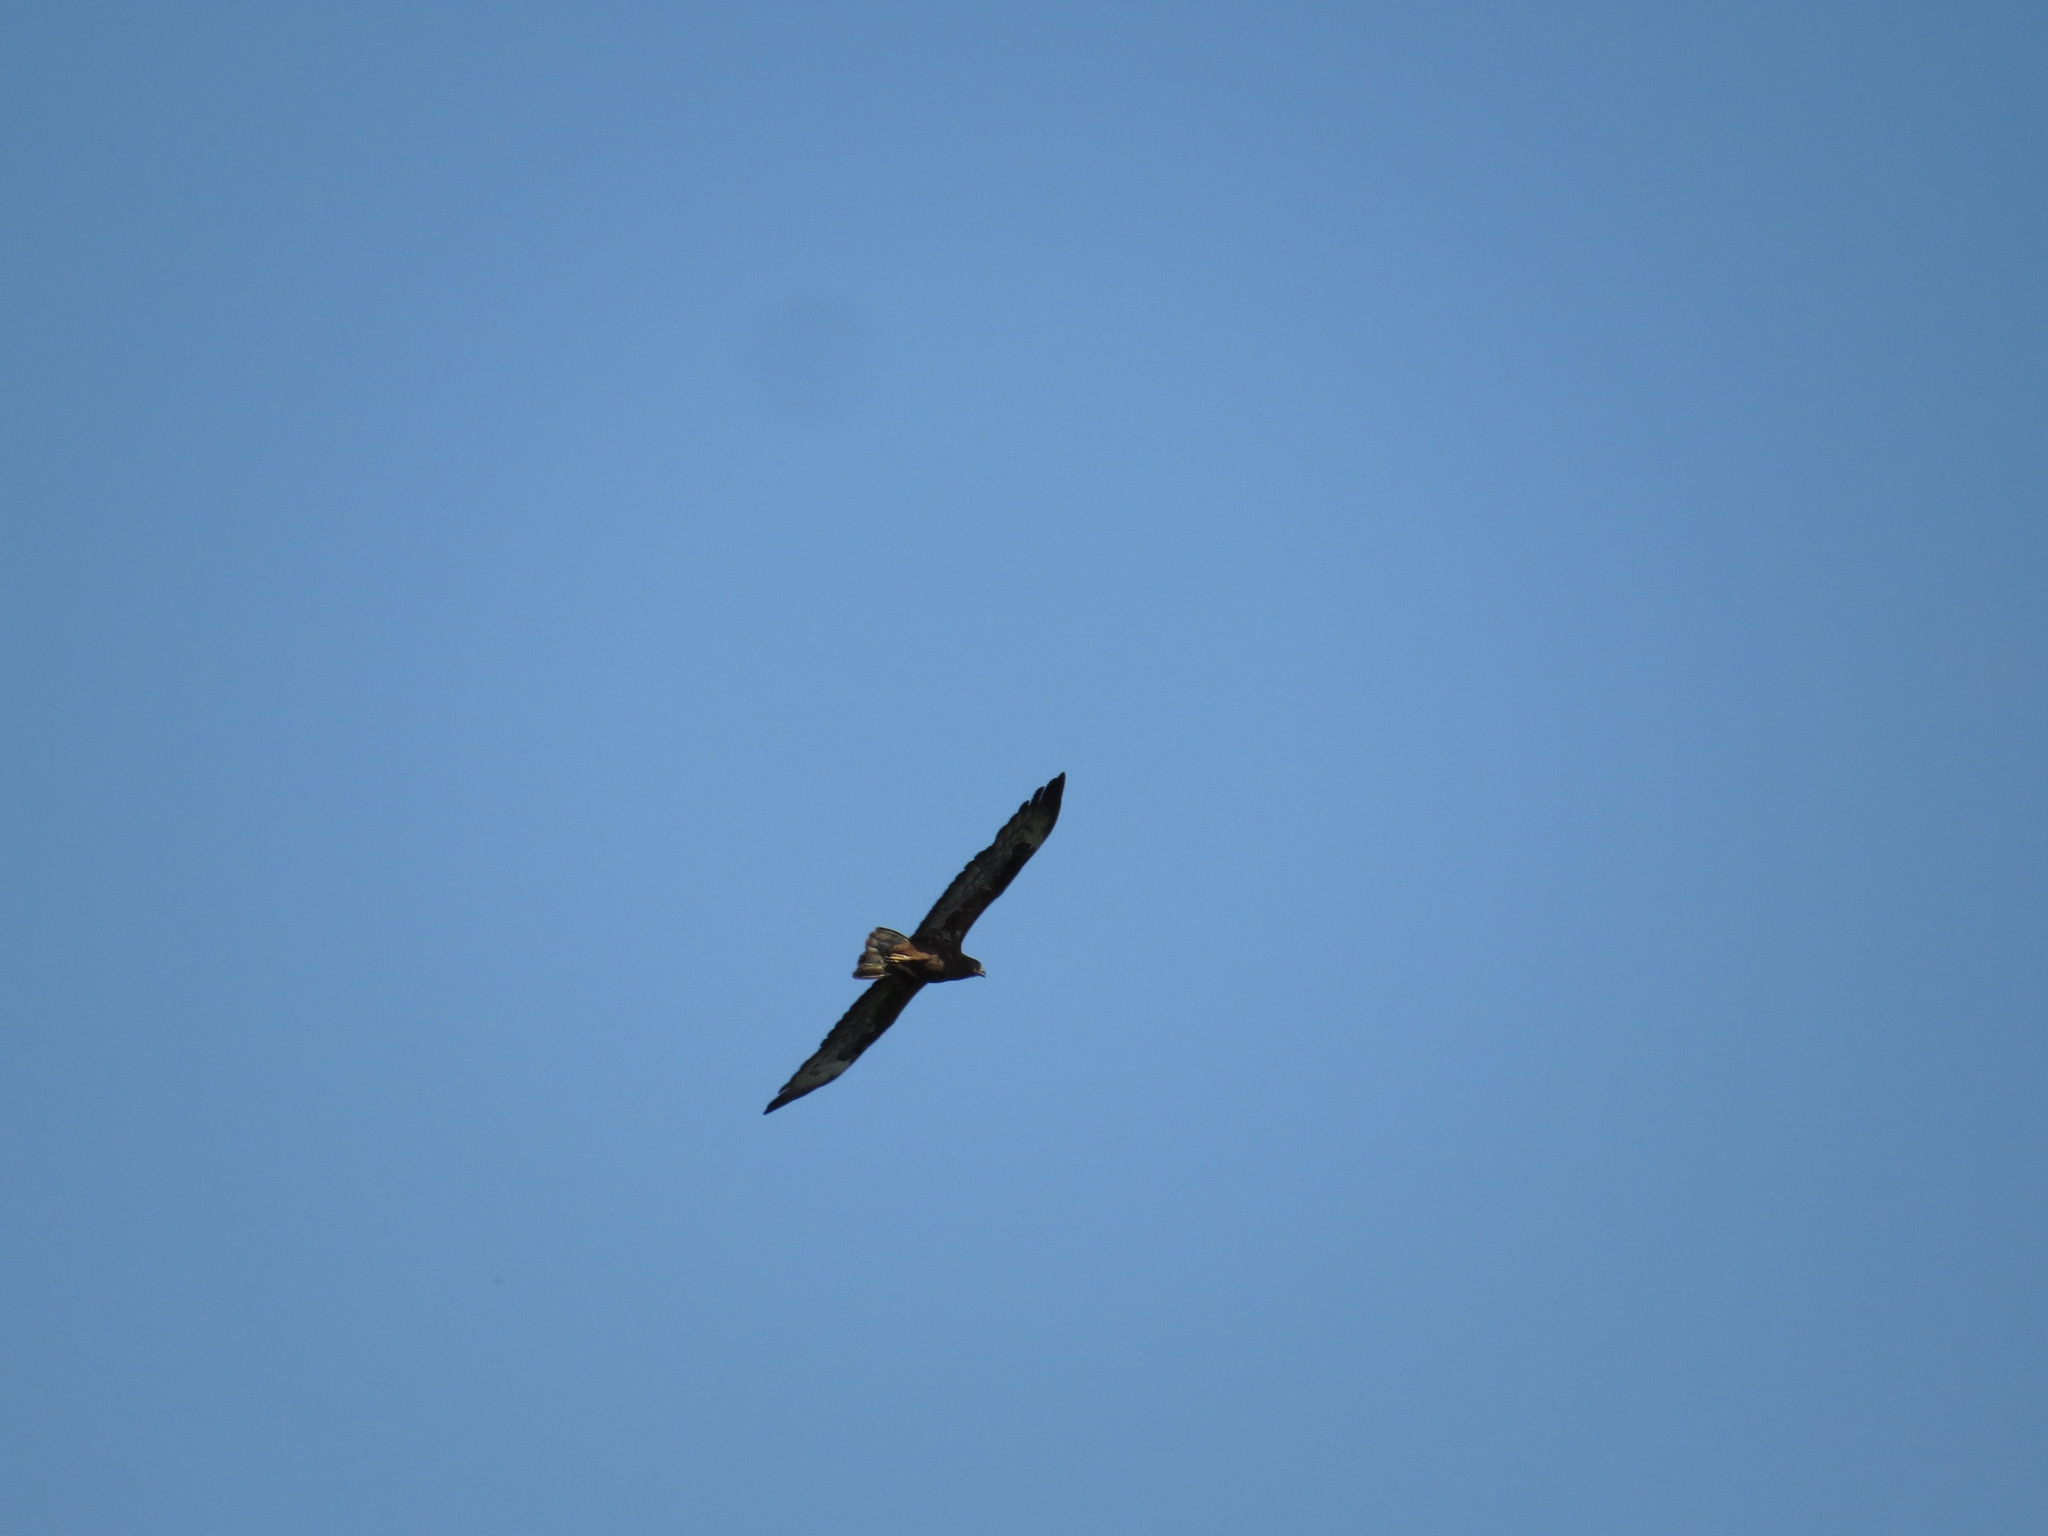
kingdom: Animalia
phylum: Chordata
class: Aves
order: Accipitriformes
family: Accipitridae
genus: Pernis
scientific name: Pernis apivorus
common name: European honey buzzard
